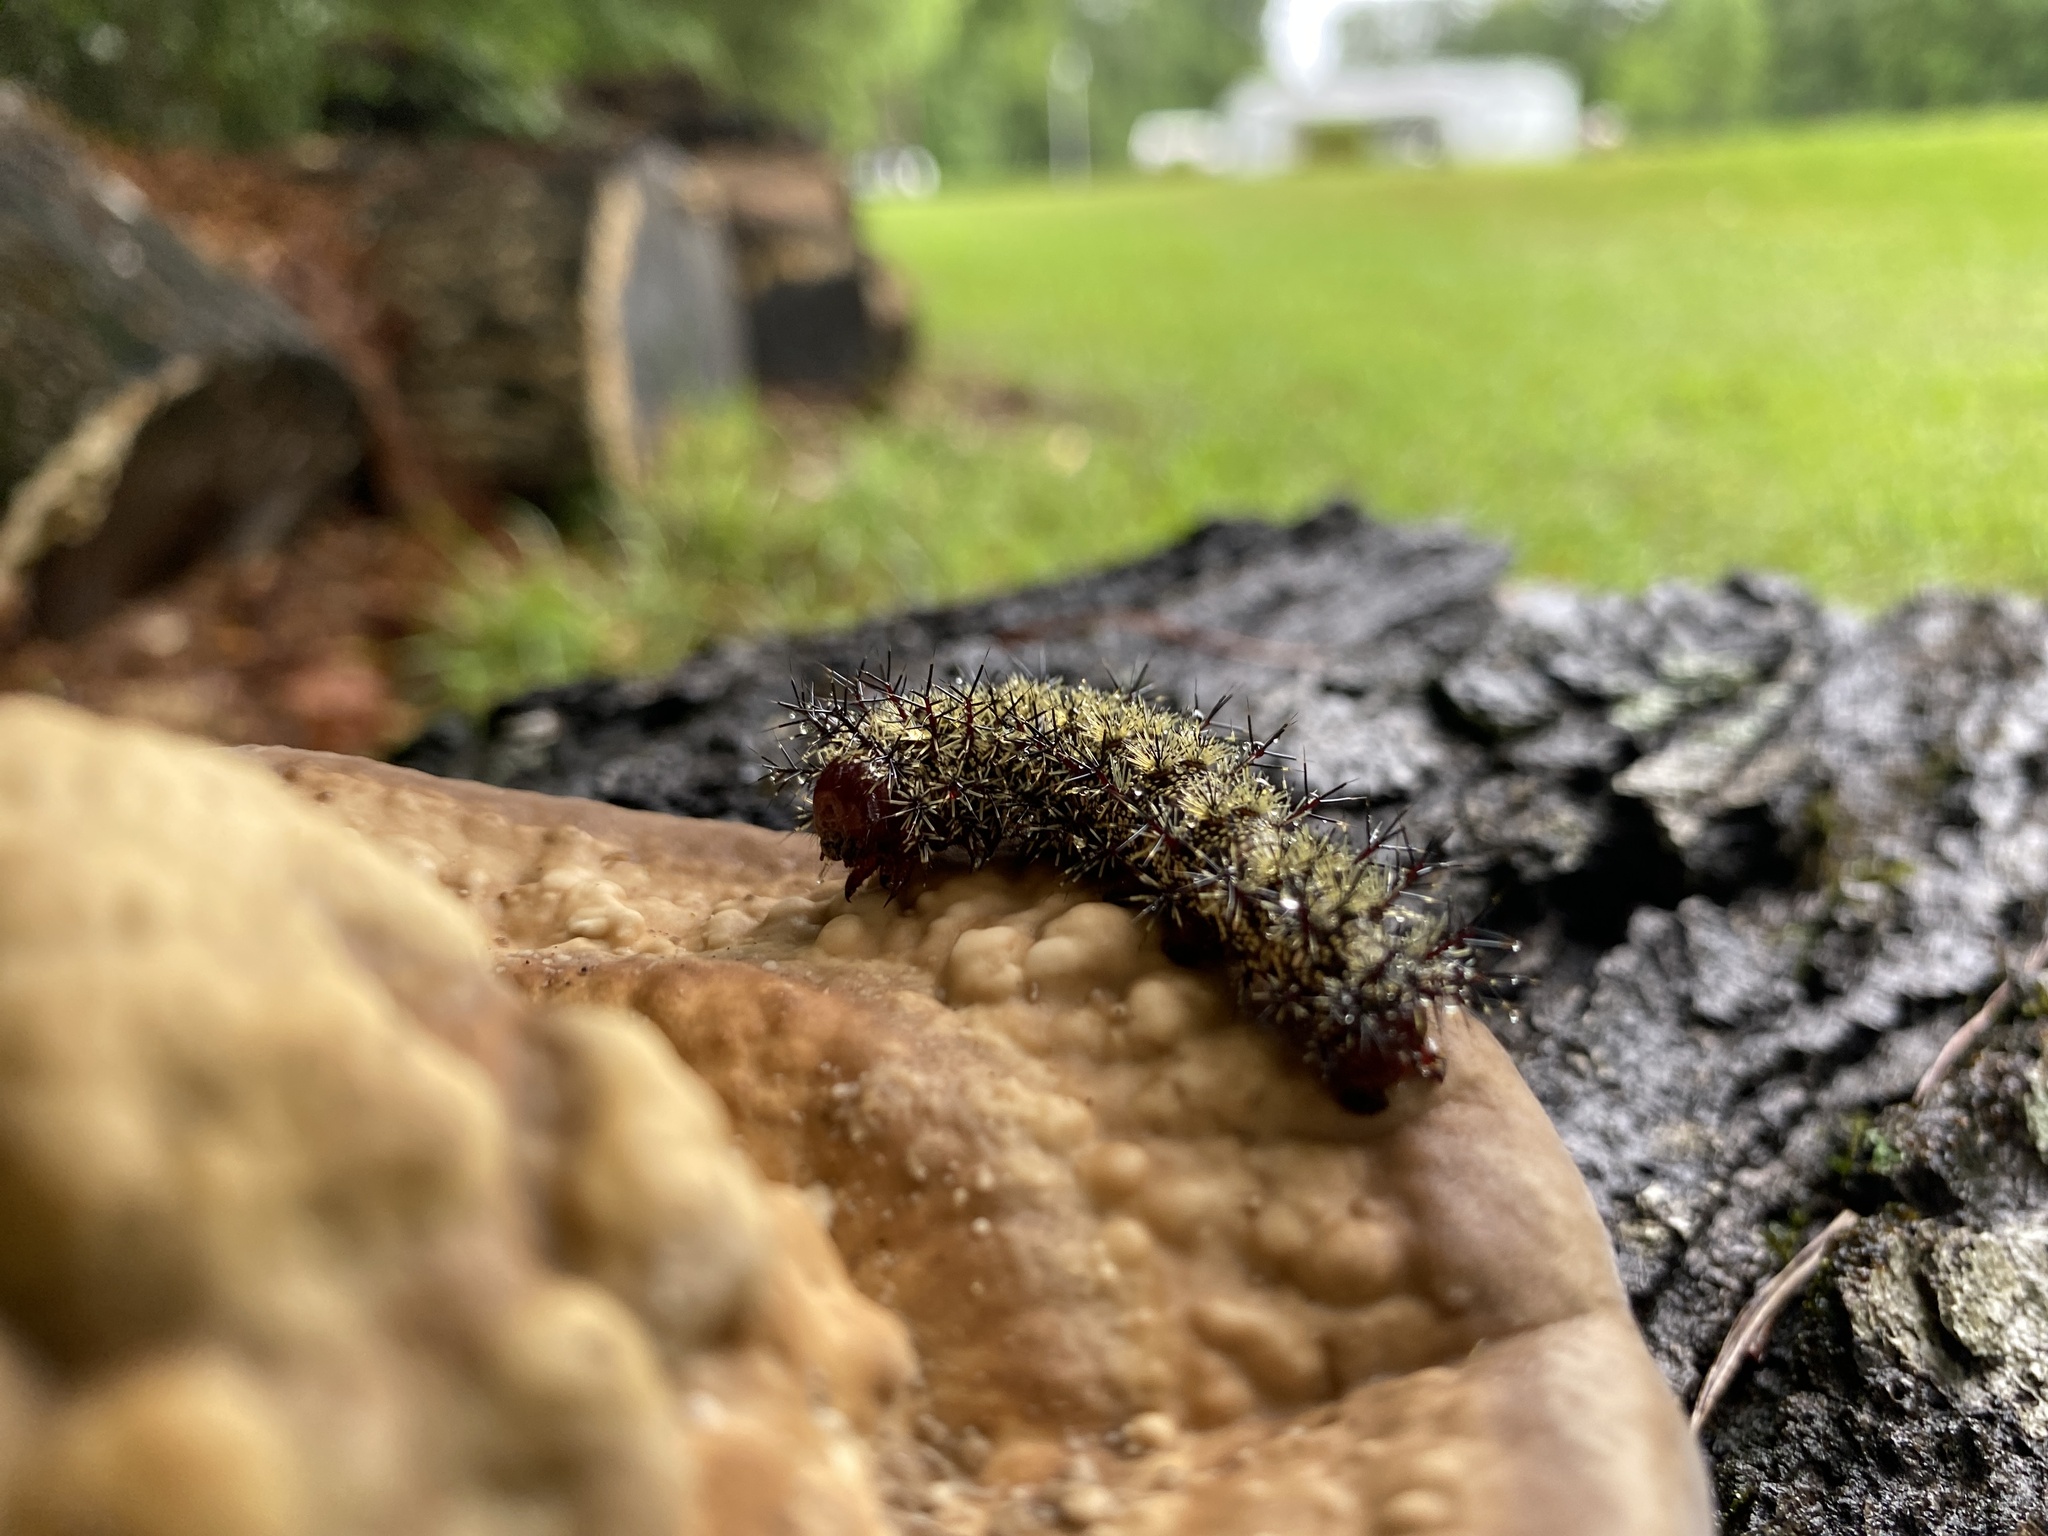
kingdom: Animalia
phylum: Arthropoda
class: Insecta
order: Lepidoptera
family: Saturniidae
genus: Hemileuca
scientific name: Hemileuca maia
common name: Eastern buckmoth
